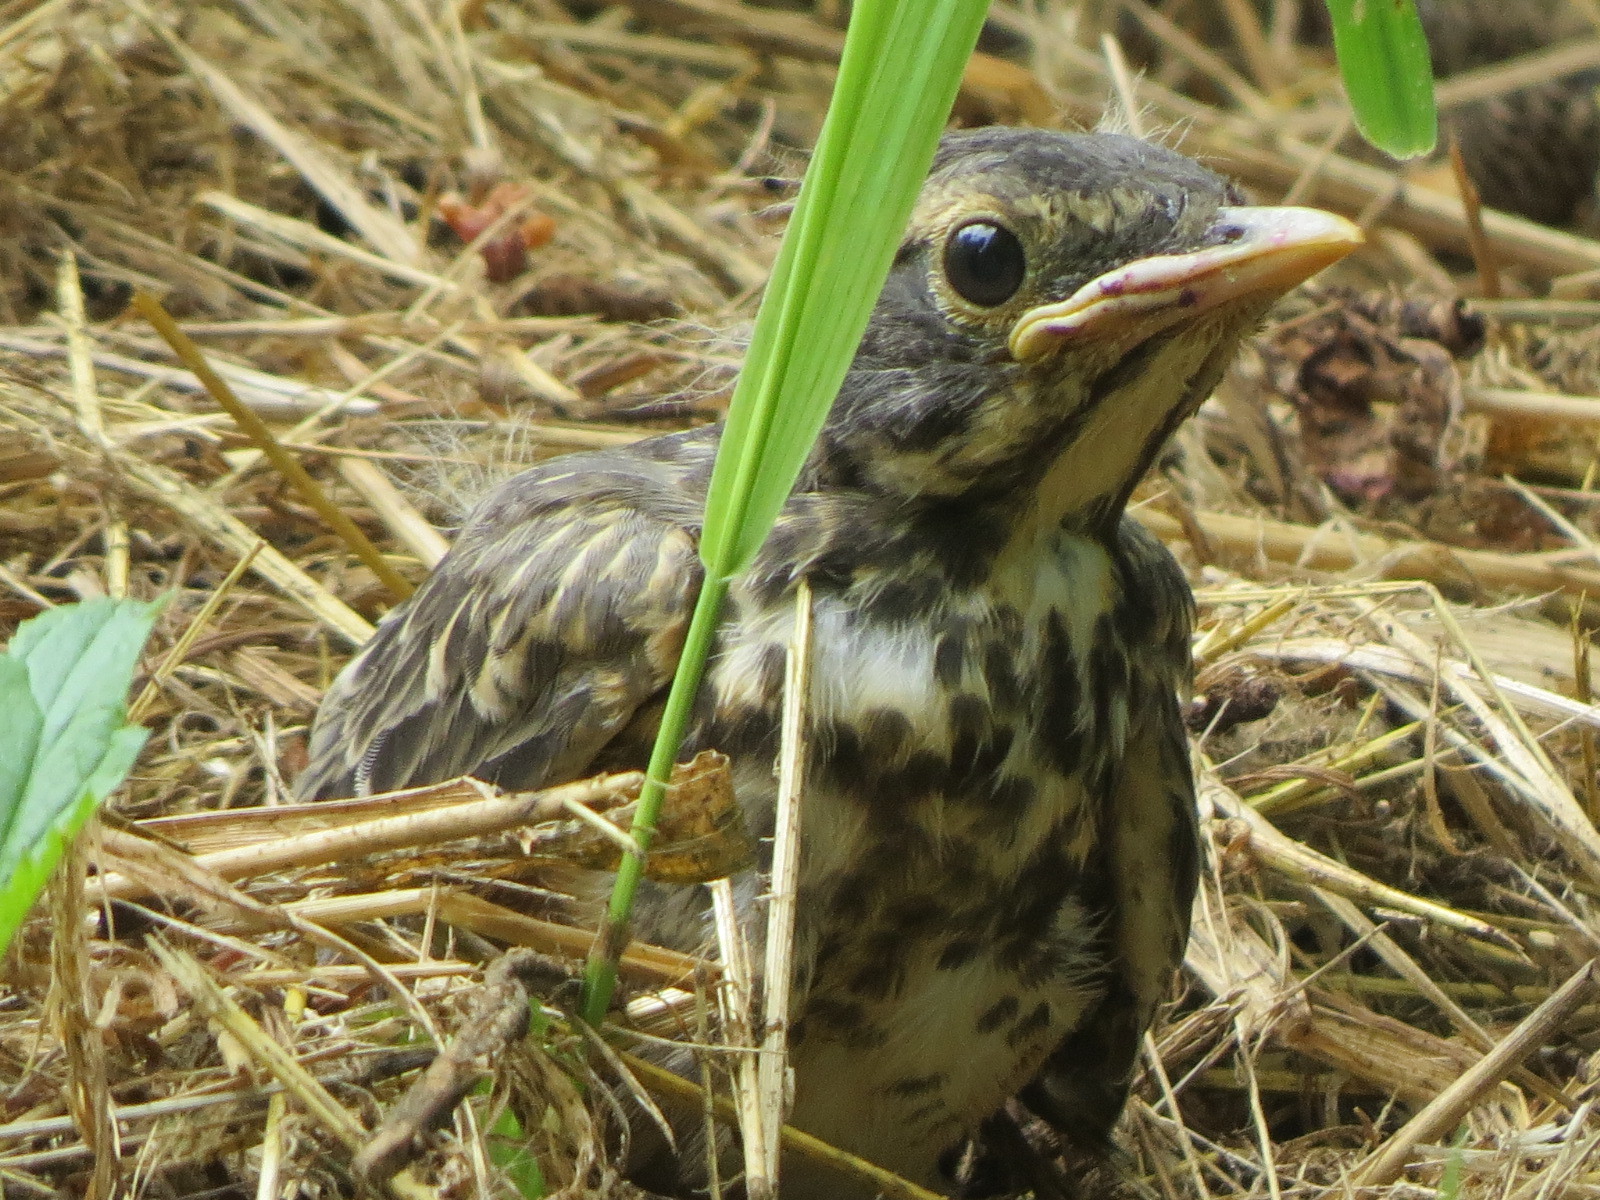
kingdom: Animalia
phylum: Chordata
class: Aves
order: Passeriformes
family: Turdidae
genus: Turdus
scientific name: Turdus migratorius
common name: American robin
